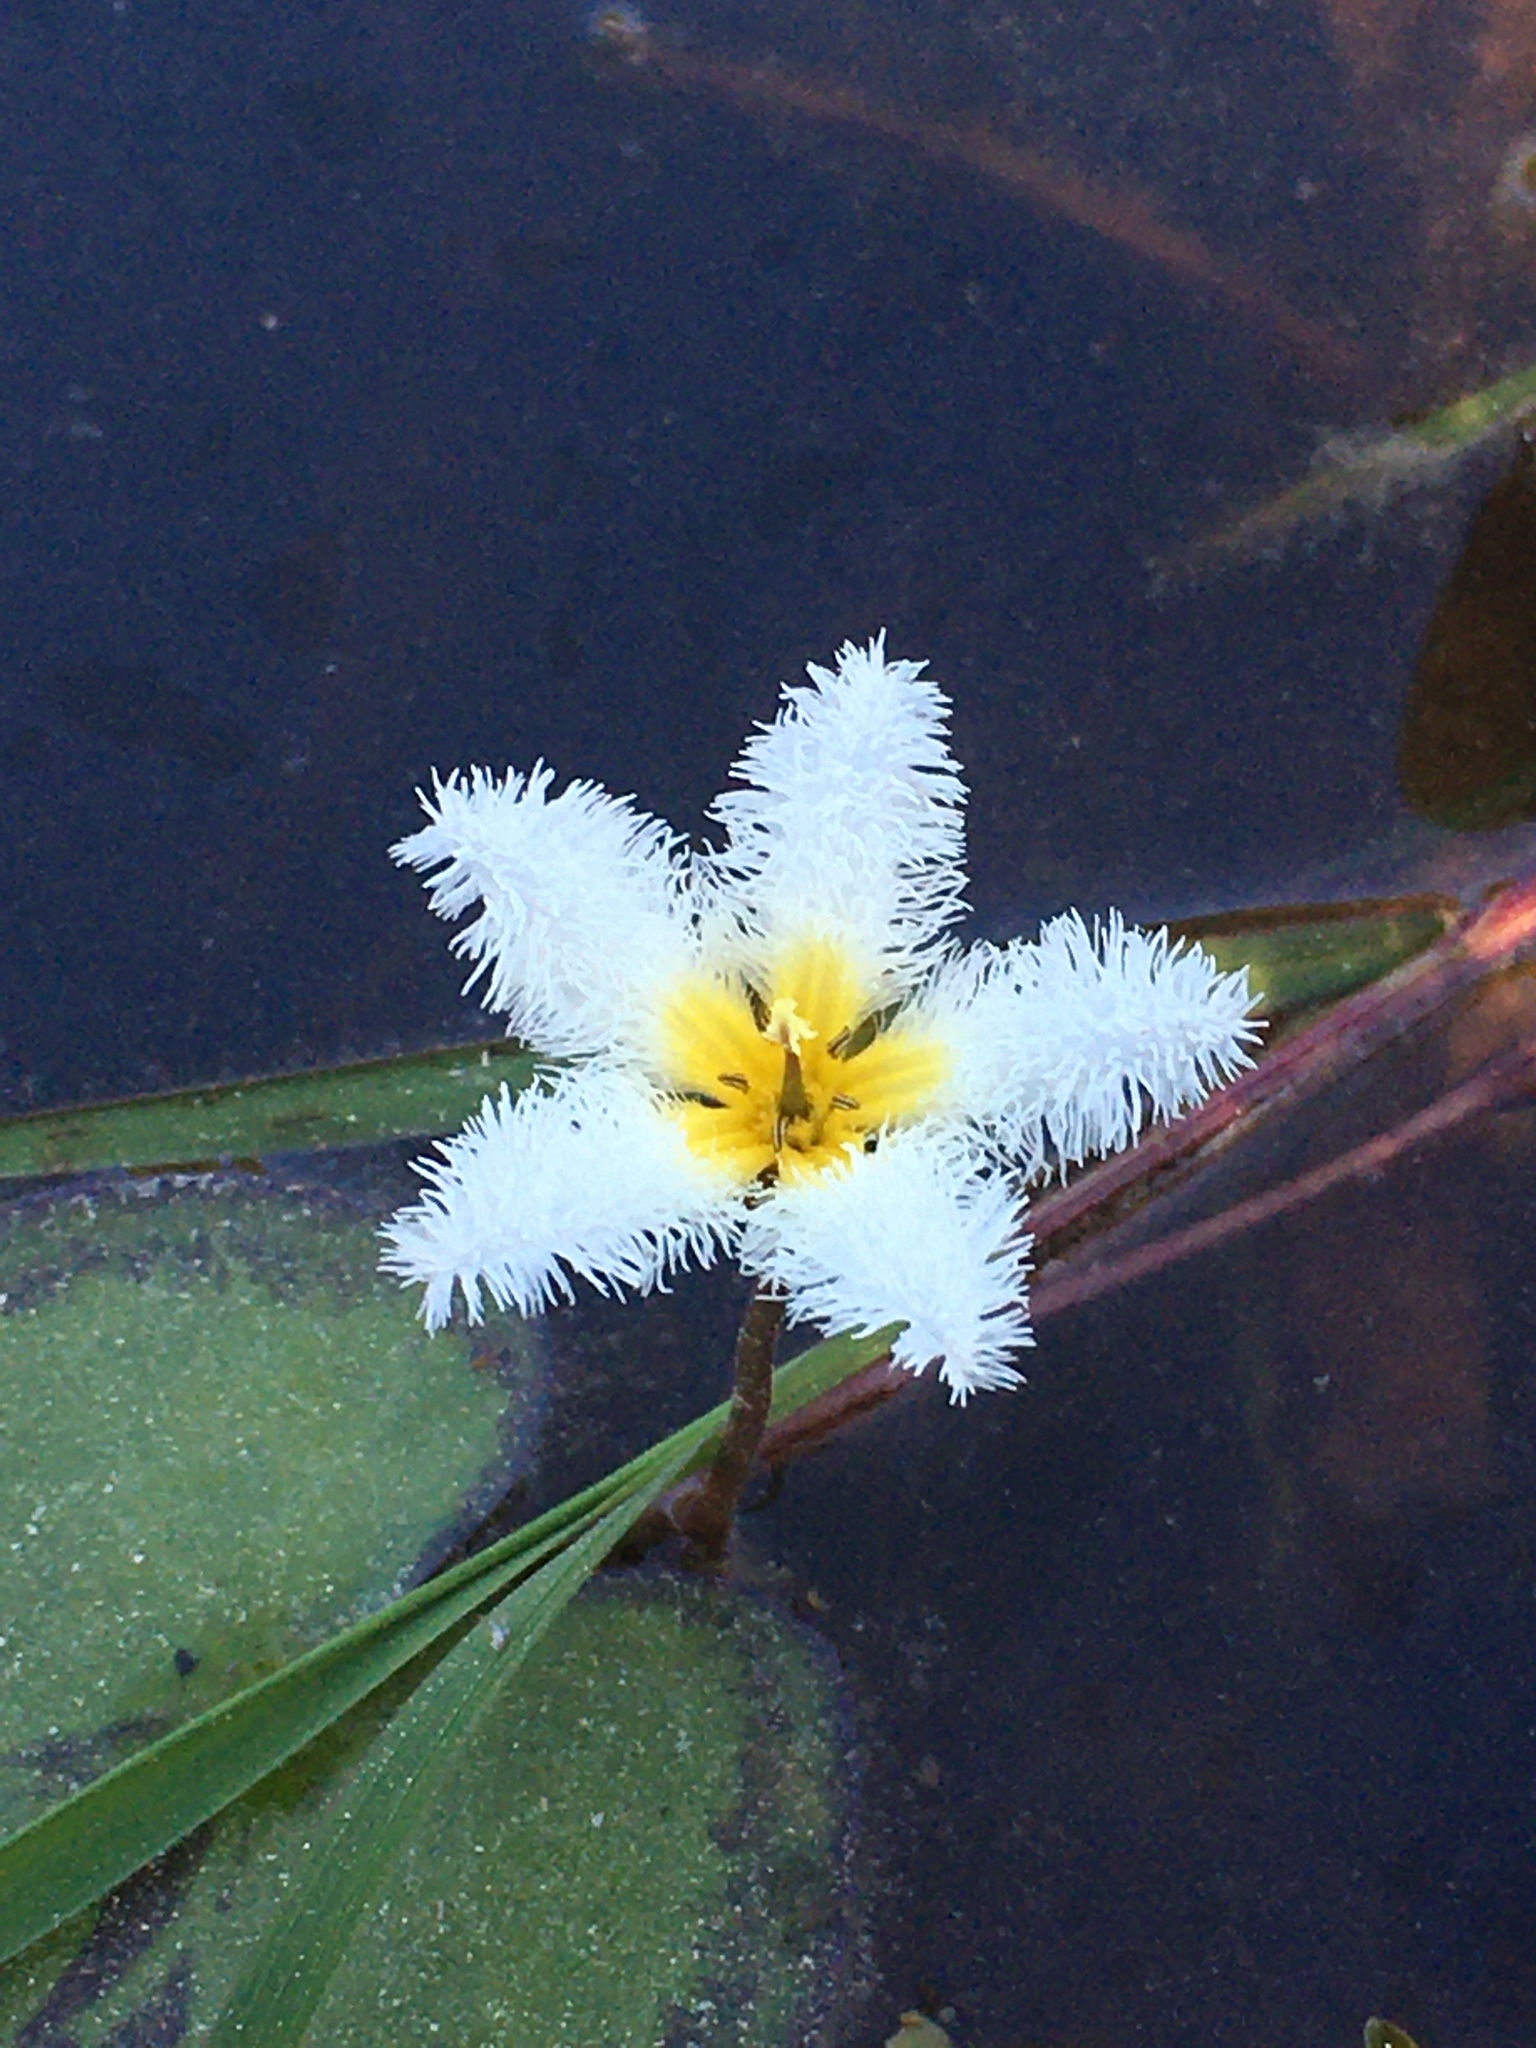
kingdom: Plantae
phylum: Tracheophyta
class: Magnoliopsida
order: Asterales
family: Menyanthaceae
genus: Nymphoides
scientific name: Nymphoides humboldtiana
